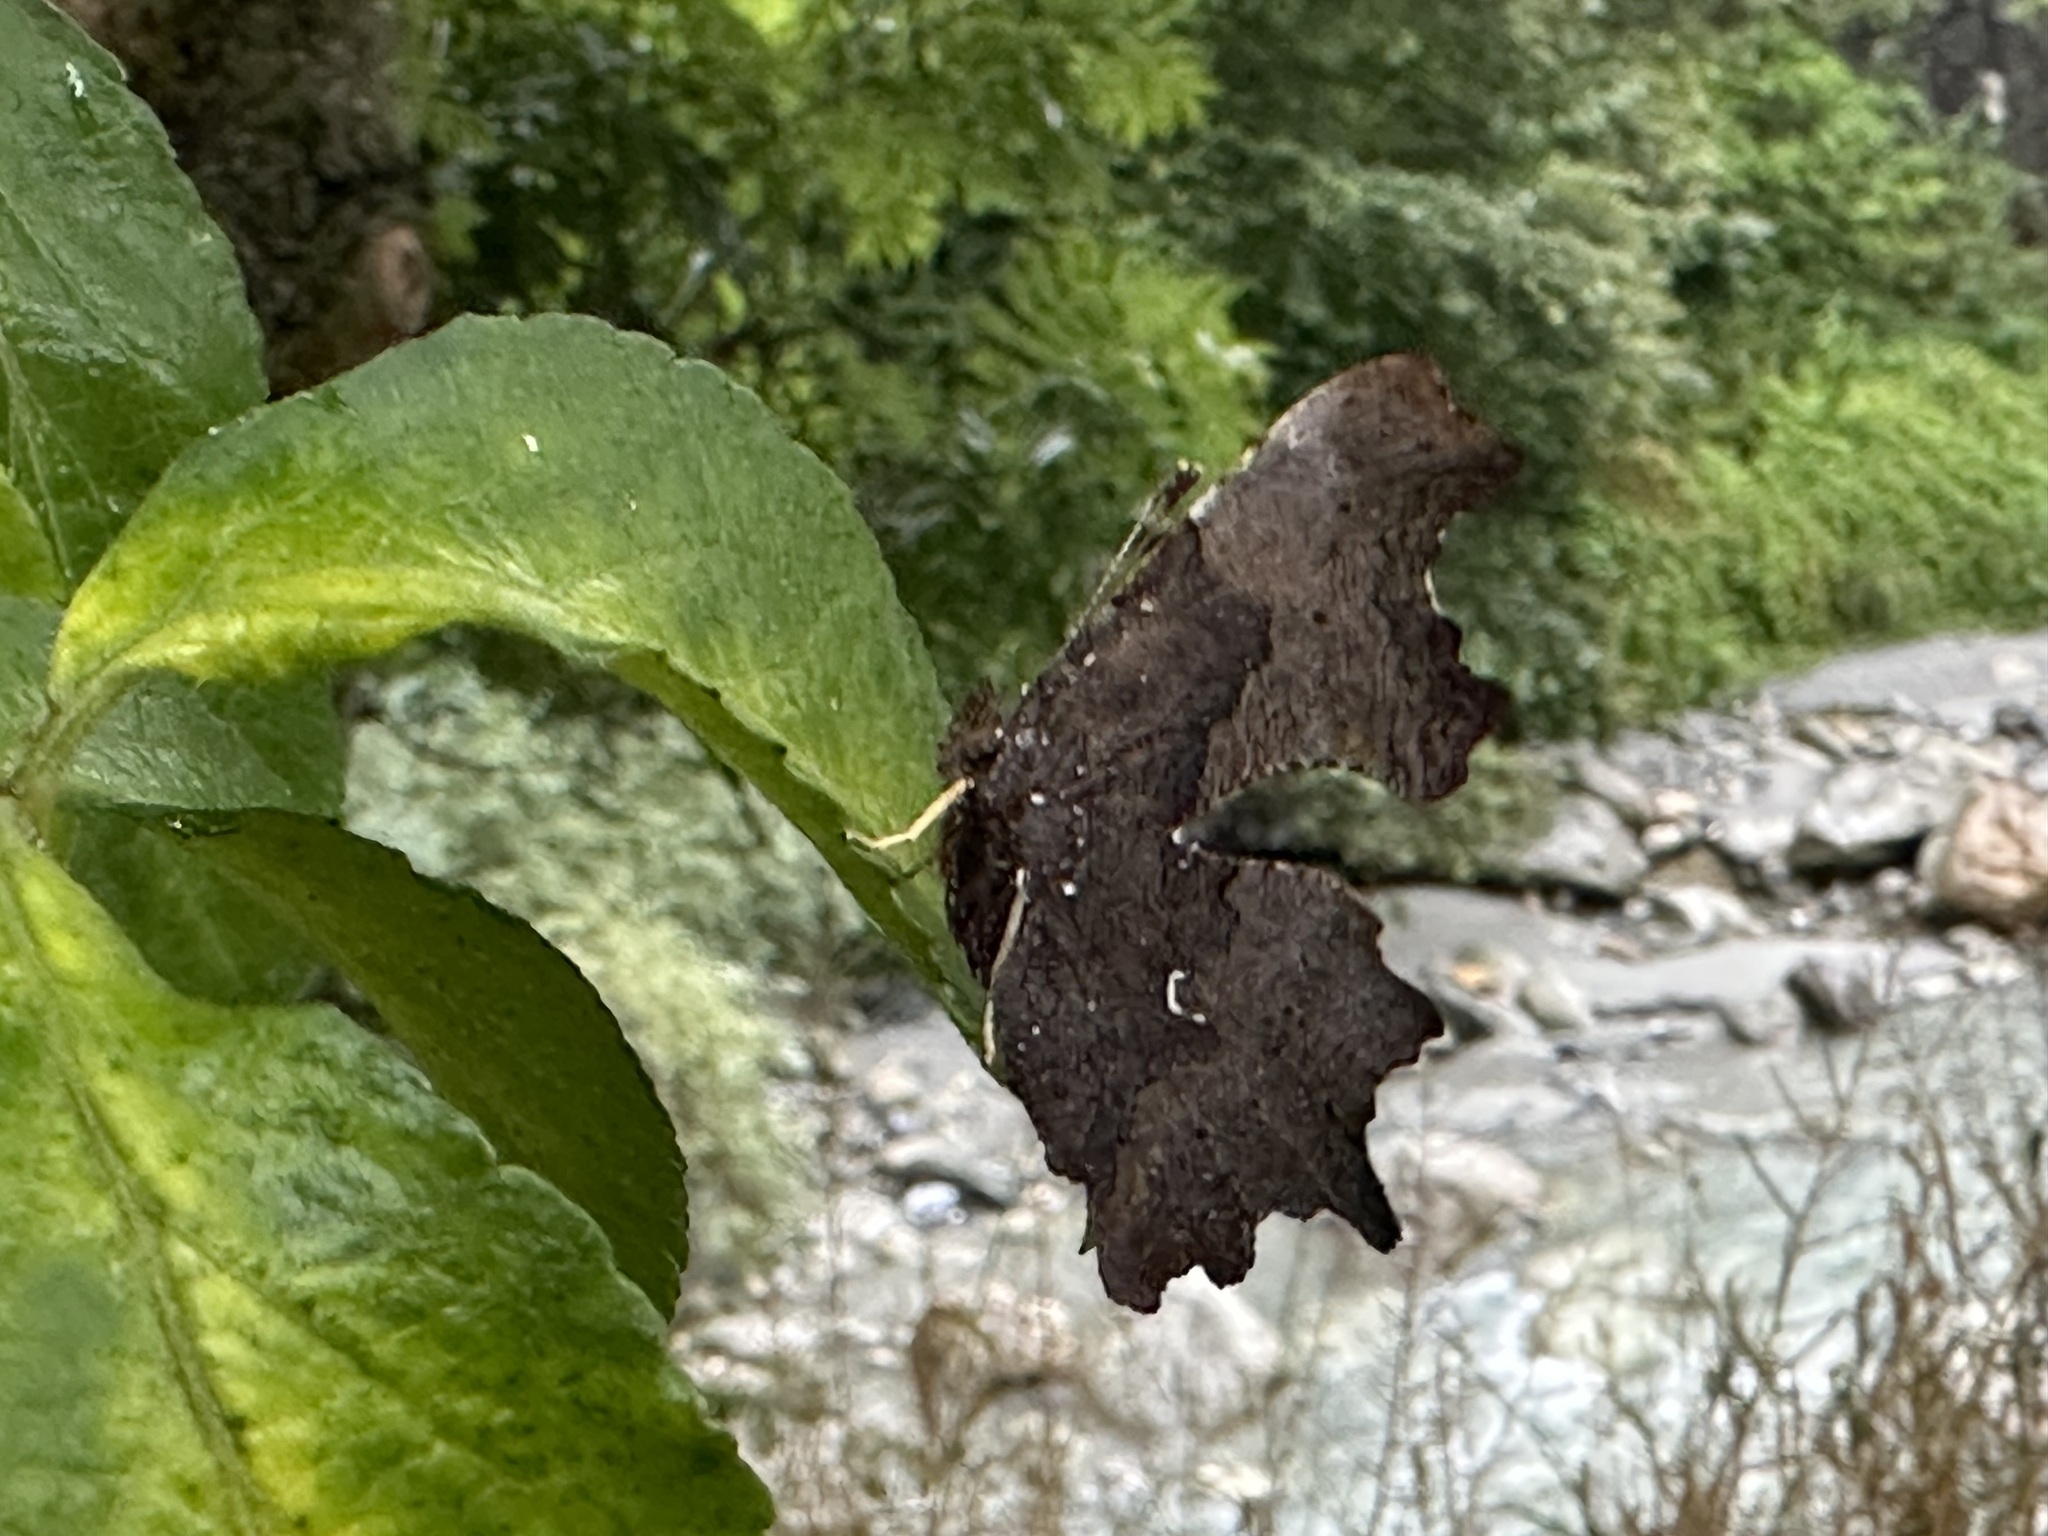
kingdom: Animalia
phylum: Arthropoda
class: Insecta
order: Lepidoptera
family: Nymphalidae
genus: Polygonia
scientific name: Polygonia c-album
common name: Comma
